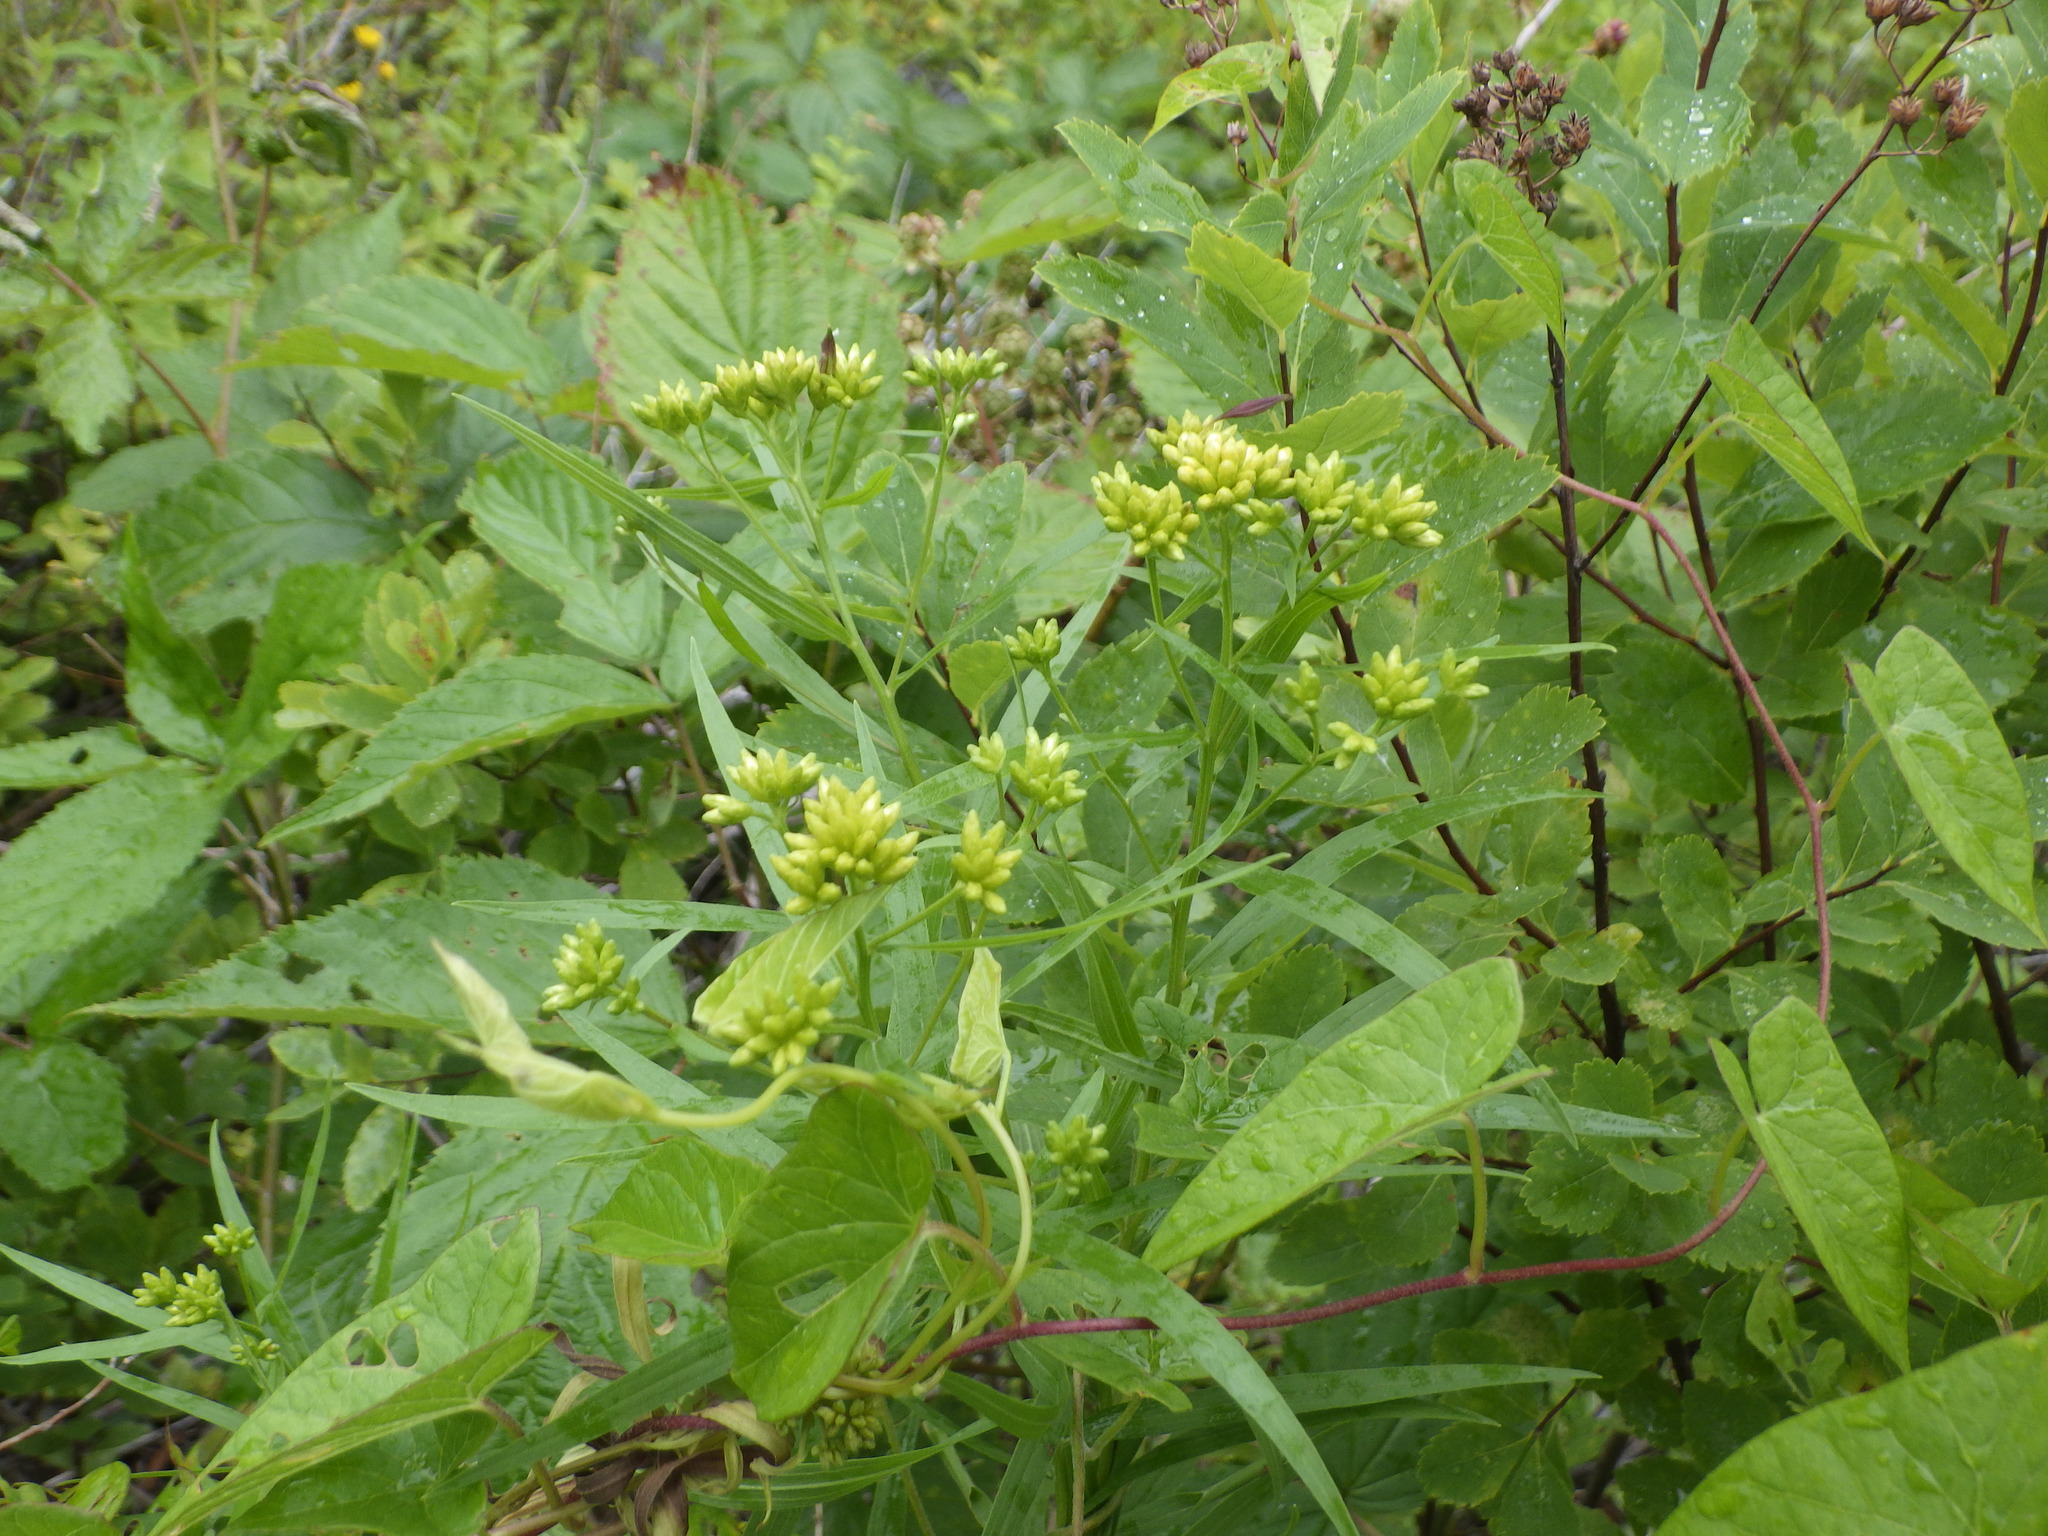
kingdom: Plantae
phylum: Tracheophyta
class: Magnoliopsida
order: Asterales
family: Asteraceae
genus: Euthamia
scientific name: Euthamia graminifolia
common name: Common goldentop
